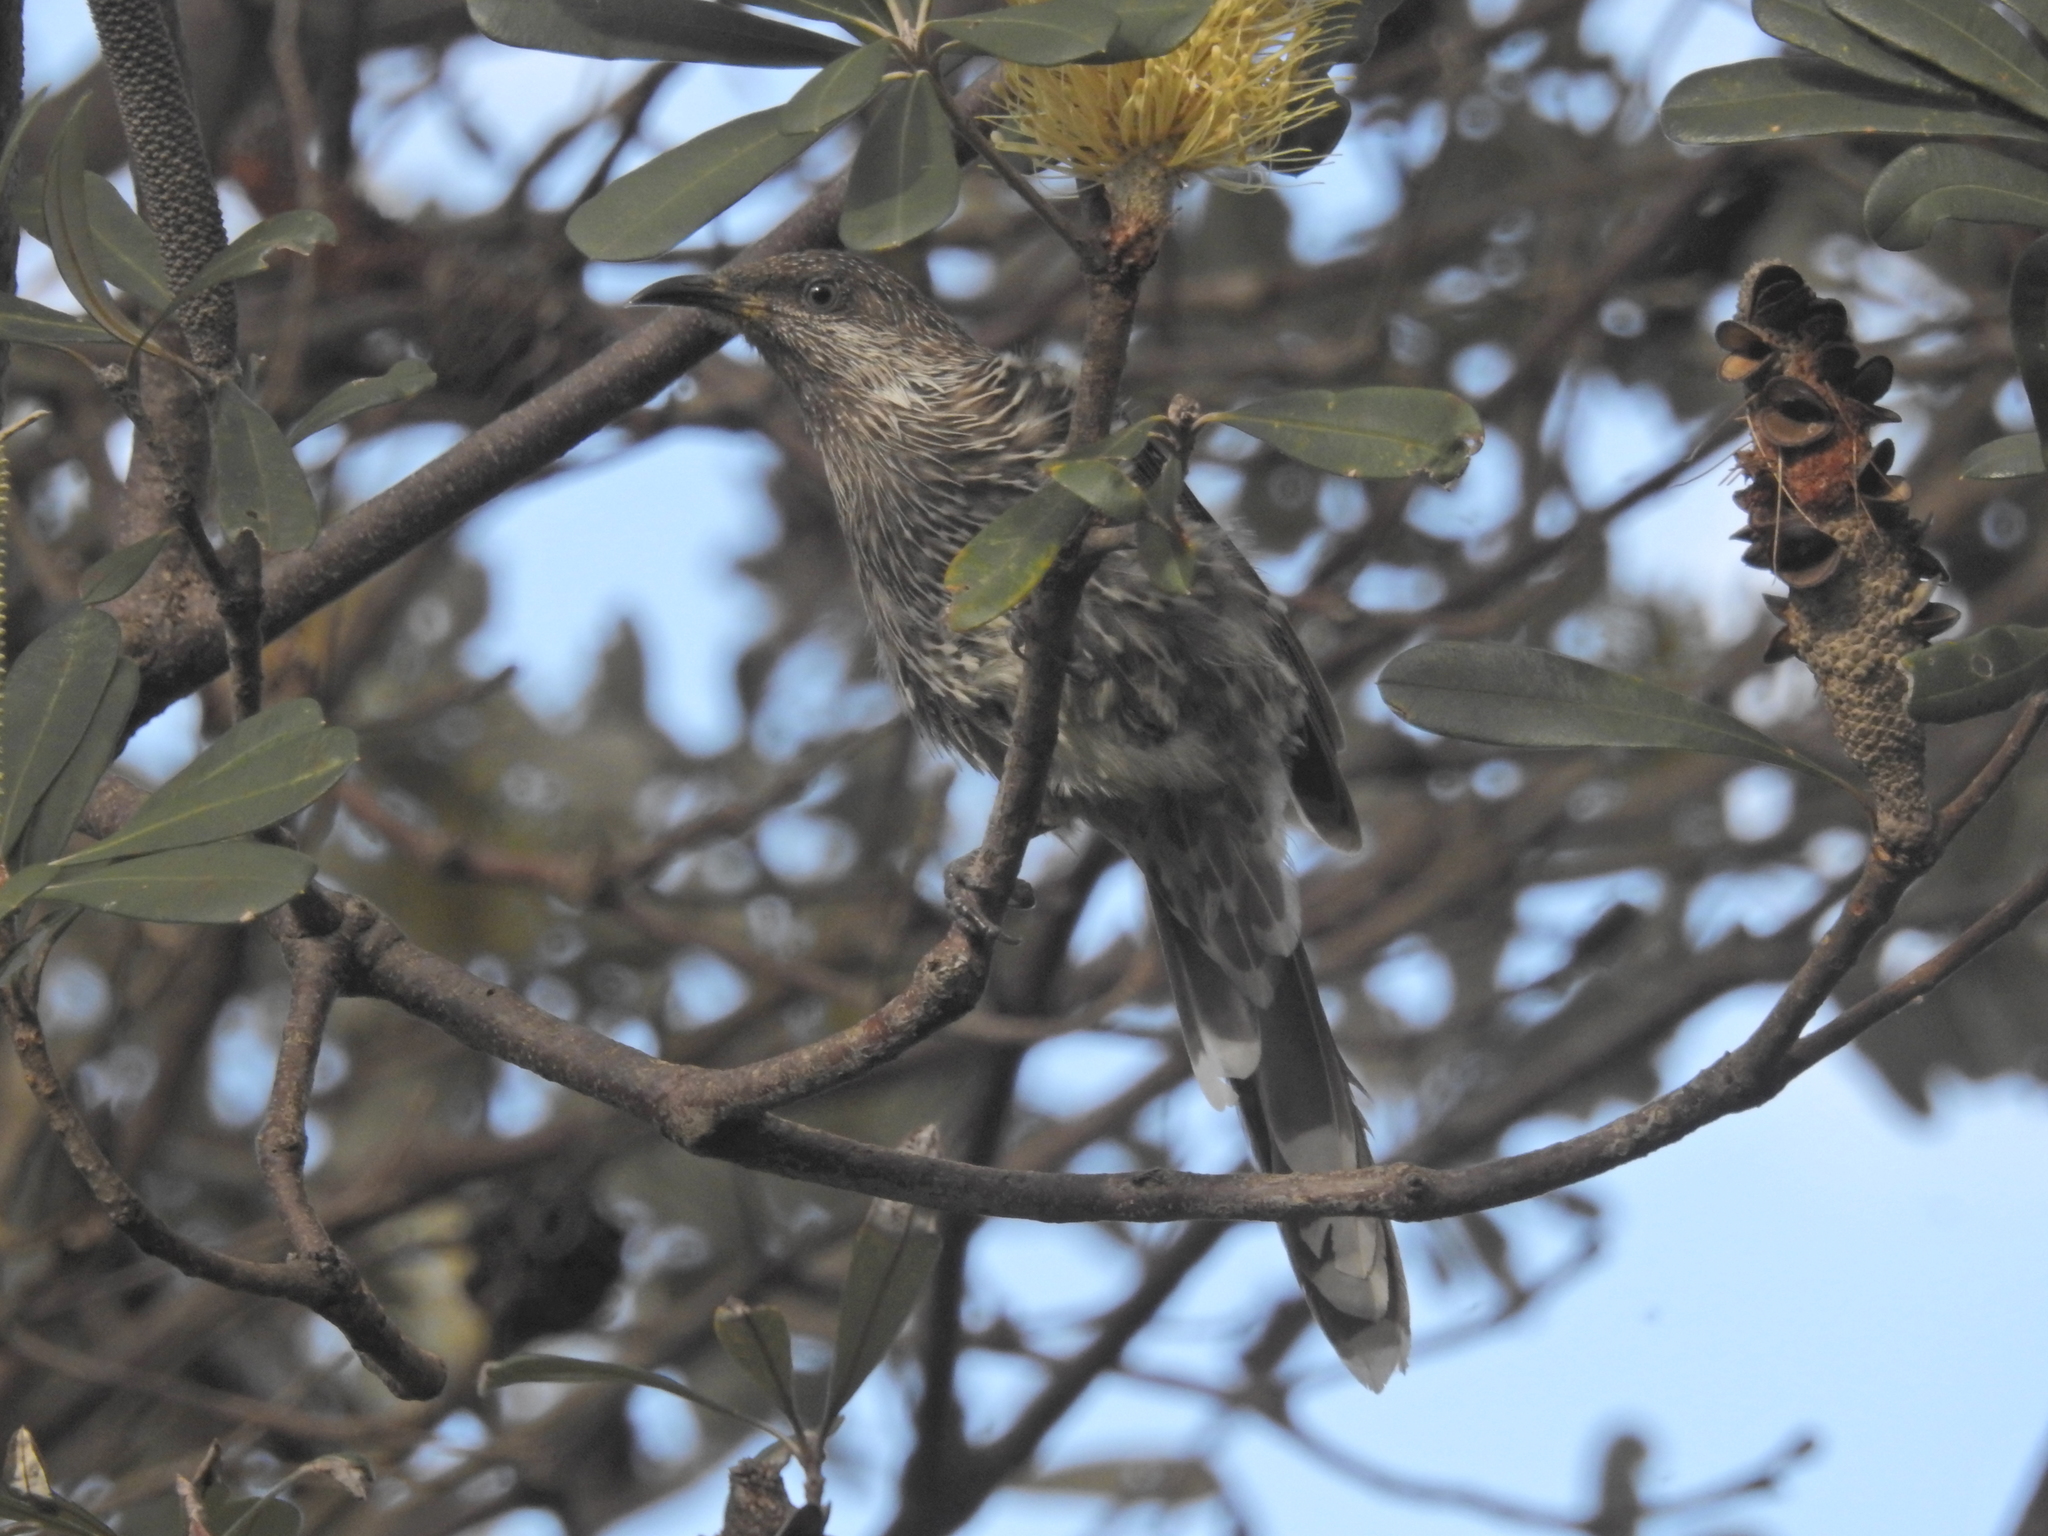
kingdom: Animalia
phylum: Chordata
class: Aves
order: Passeriformes
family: Meliphagidae
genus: Anthochaera
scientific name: Anthochaera chrysoptera
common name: Little wattlebird
